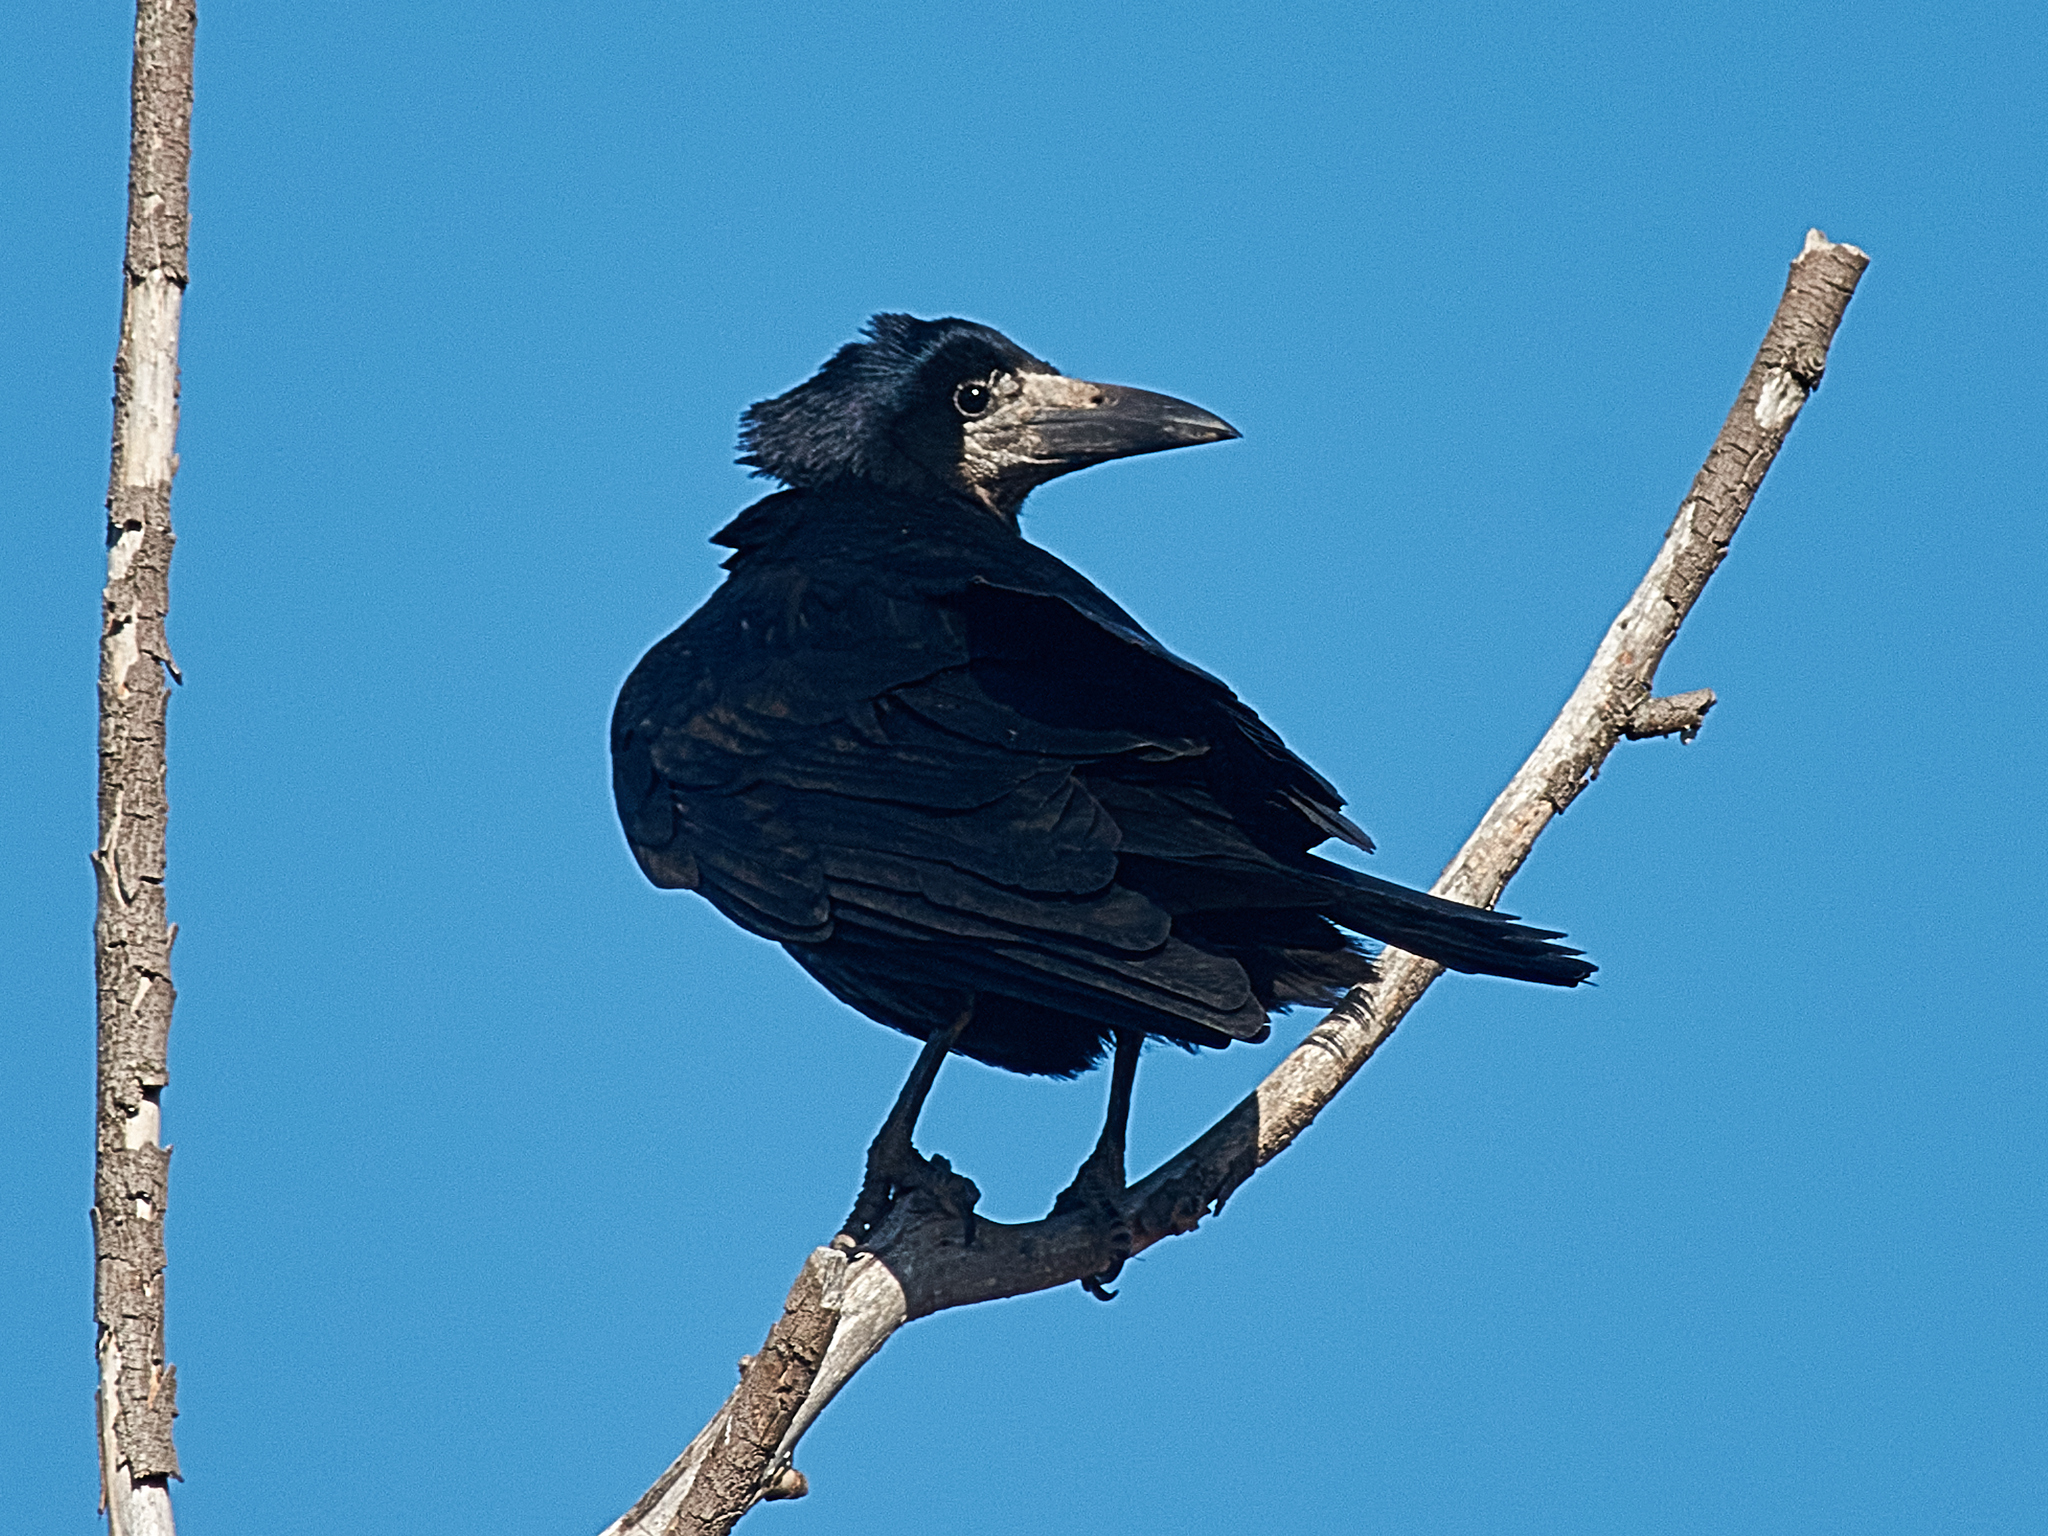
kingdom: Animalia
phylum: Chordata
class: Aves
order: Passeriformes
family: Corvidae
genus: Corvus
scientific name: Corvus frugilegus
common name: Rook
